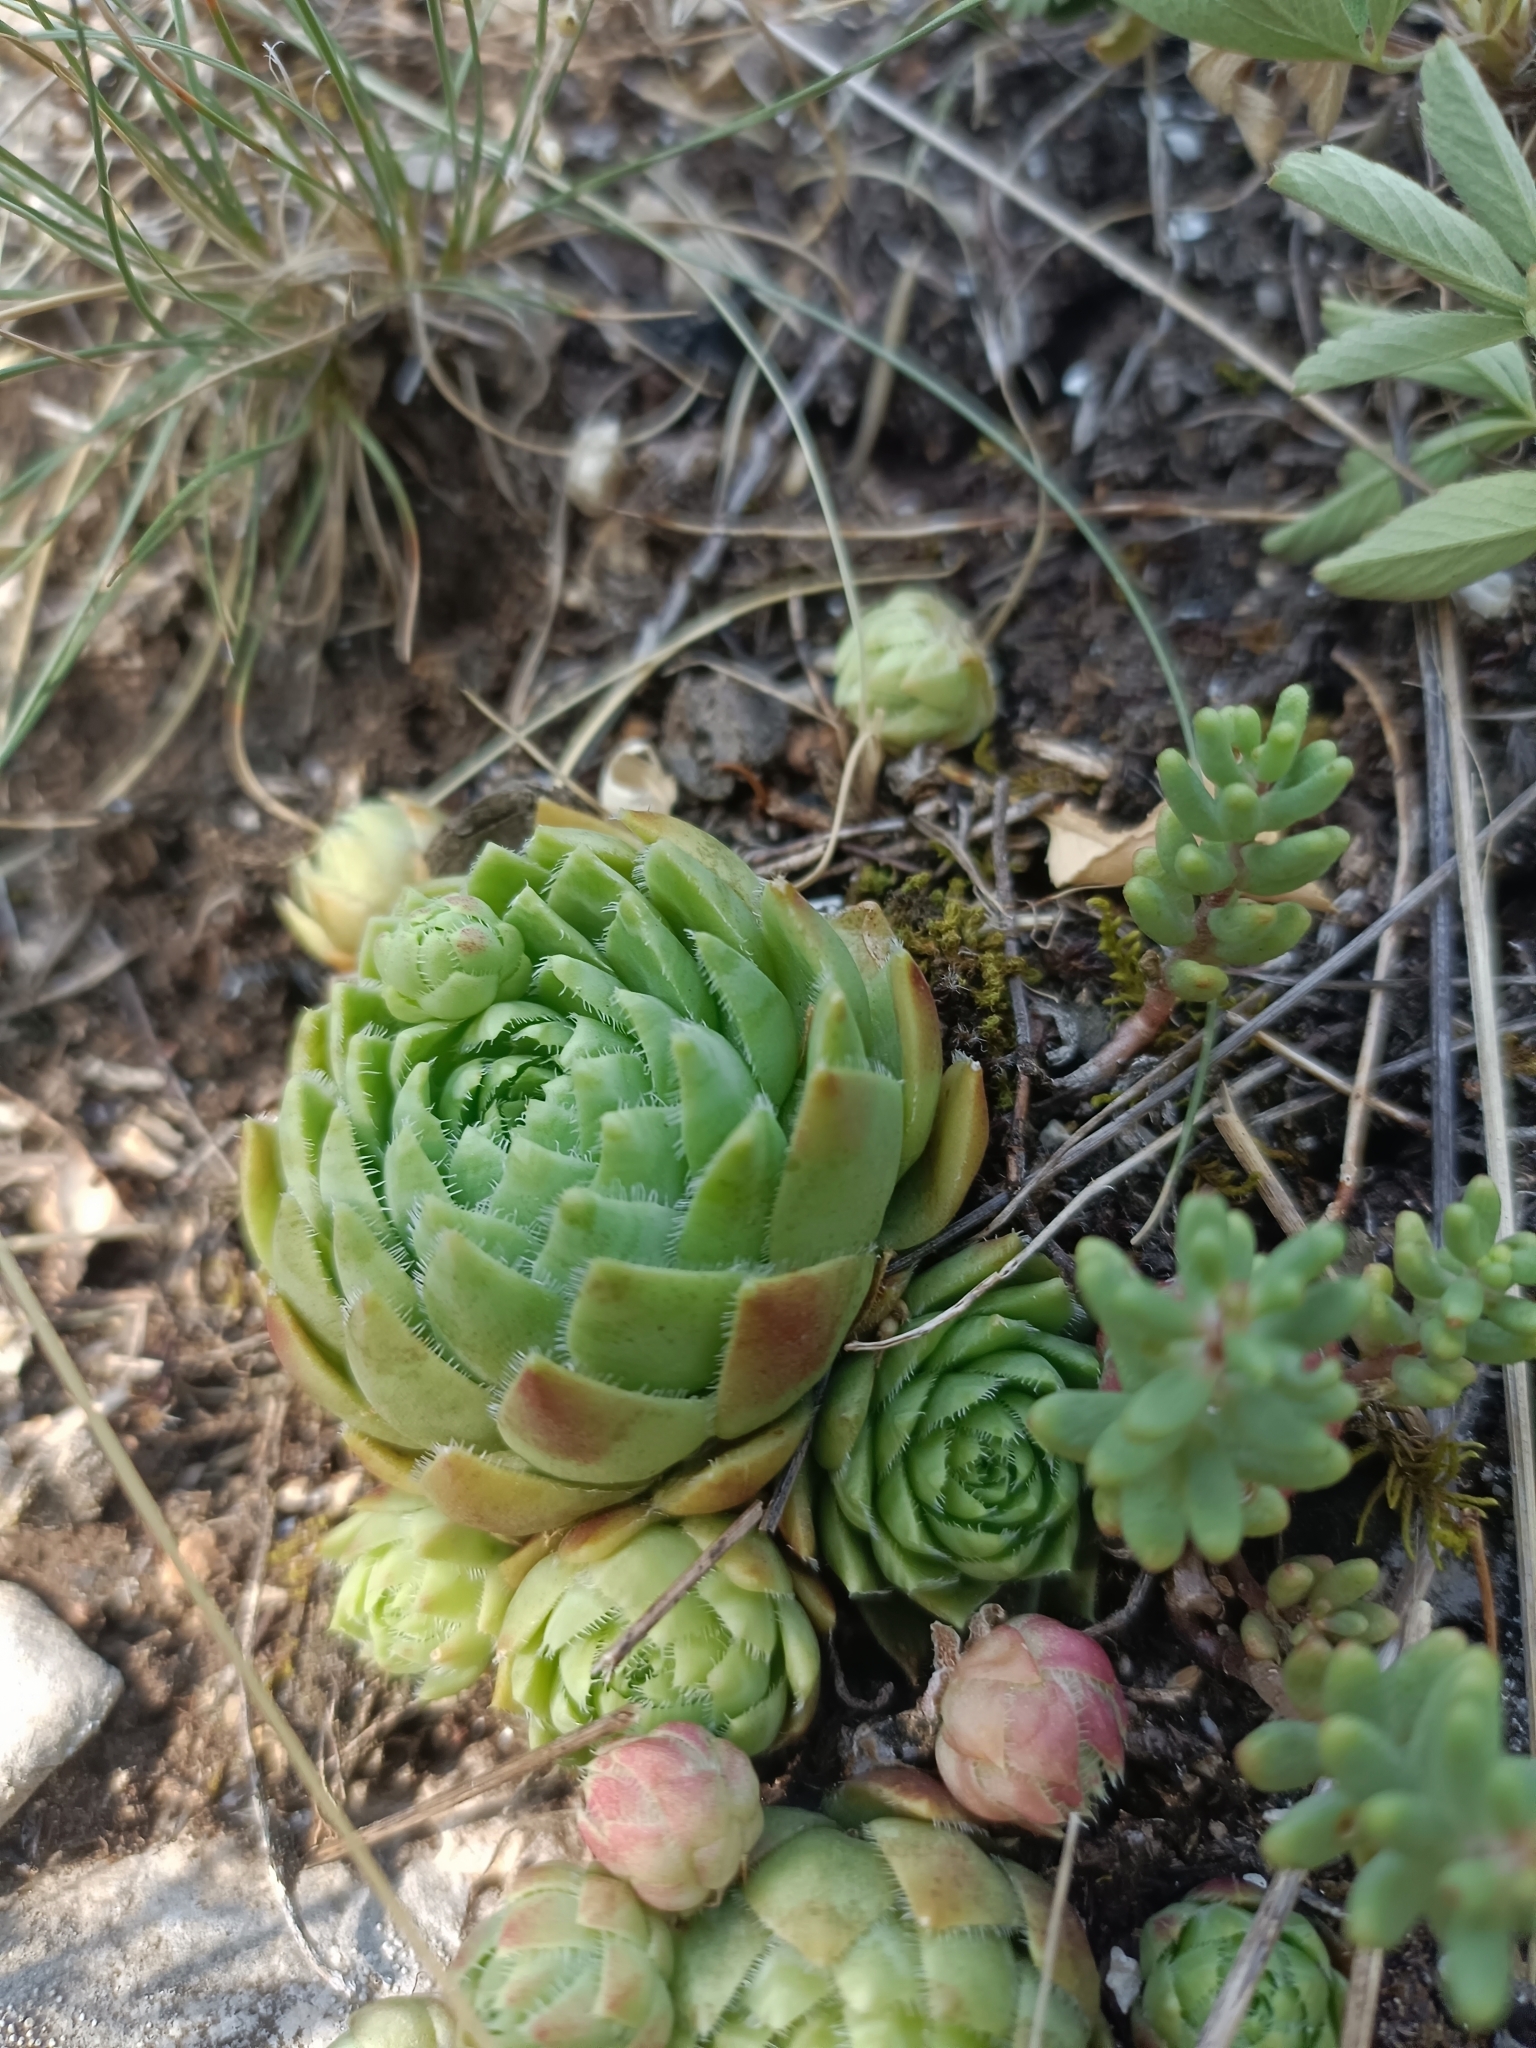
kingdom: Plantae
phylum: Tracheophyta
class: Magnoliopsida
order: Saxifragales
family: Crassulaceae
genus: Sempervivum
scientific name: Sempervivum globiferum
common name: Rolling hen-and-chicks
